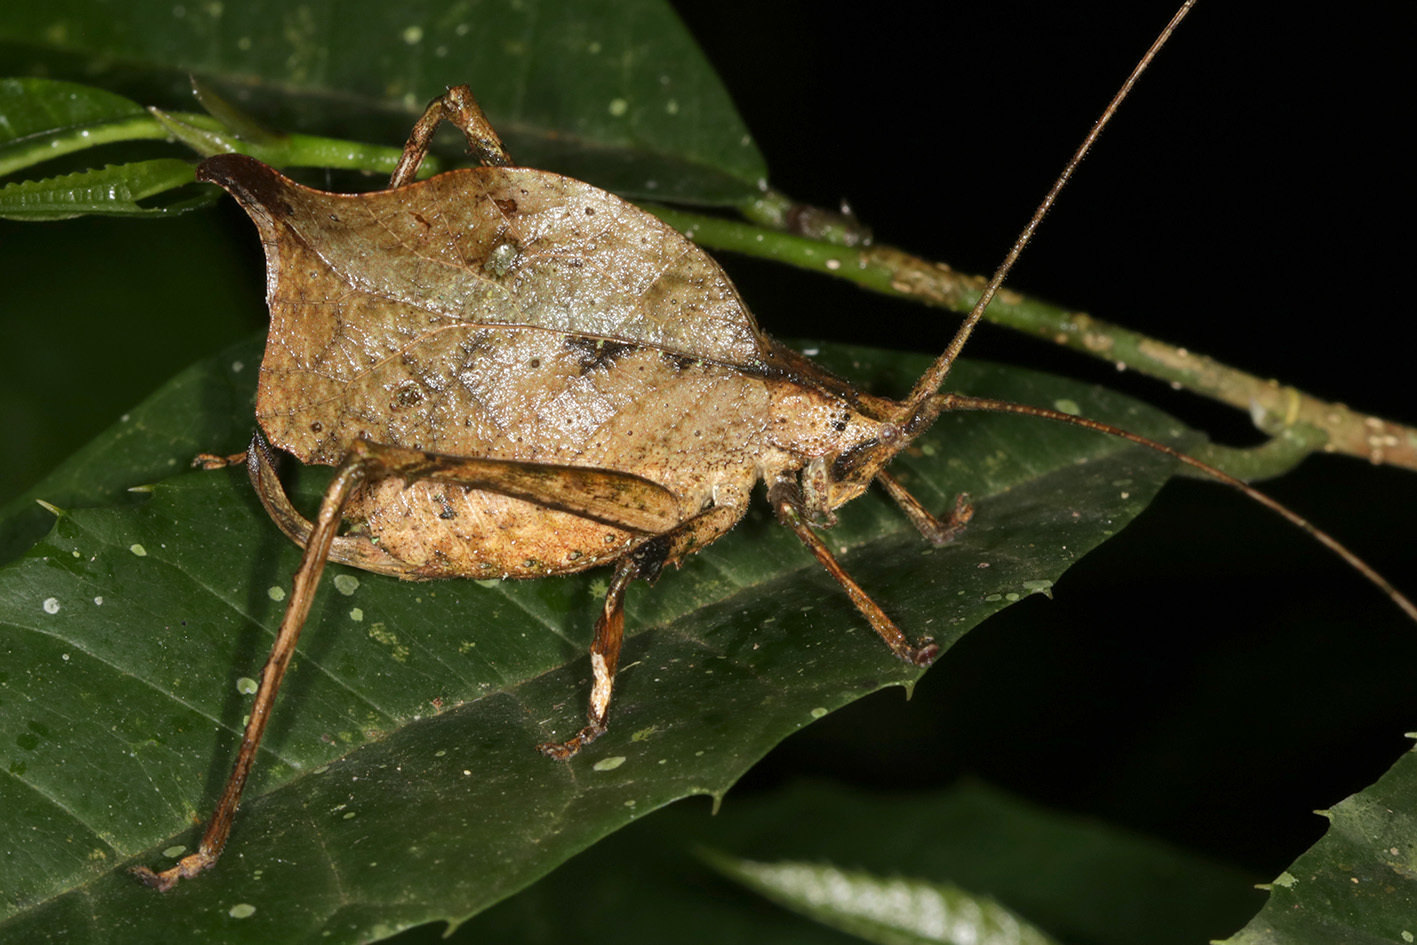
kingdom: Animalia
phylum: Arthropoda
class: Insecta
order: Orthoptera
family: Tettigoniidae
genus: Typophyllum
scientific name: Typophyllum inflatum
